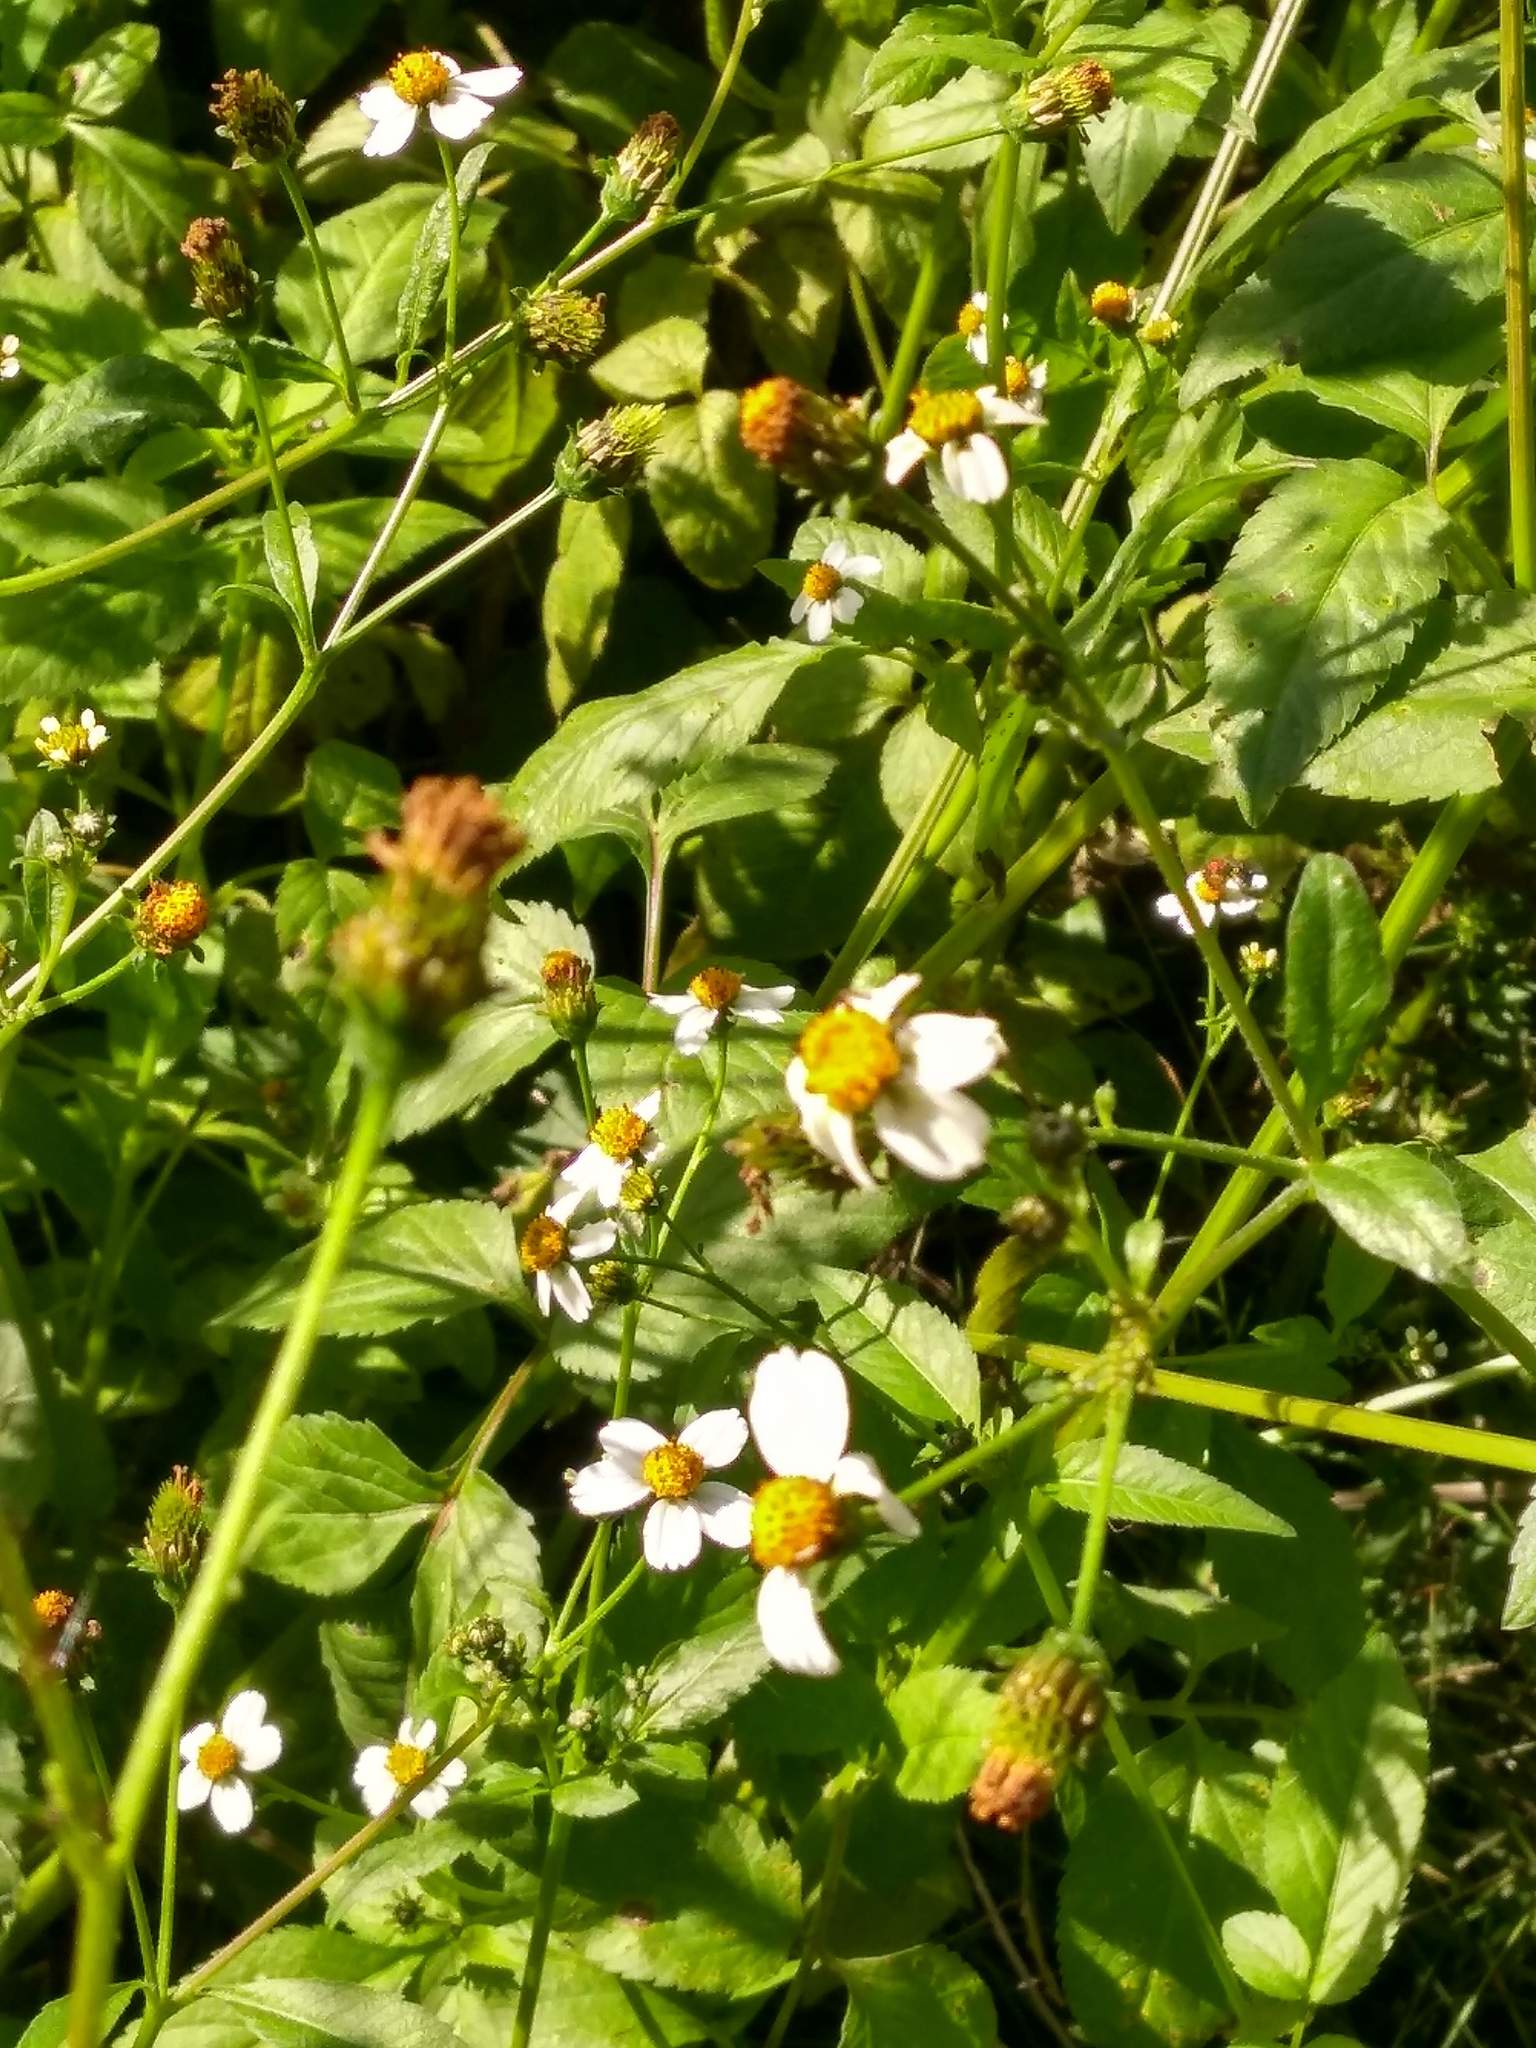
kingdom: Plantae
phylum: Tracheophyta
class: Magnoliopsida
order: Asterales
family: Asteraceae
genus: Bidens
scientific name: Bidens pilosa
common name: Black-jack
